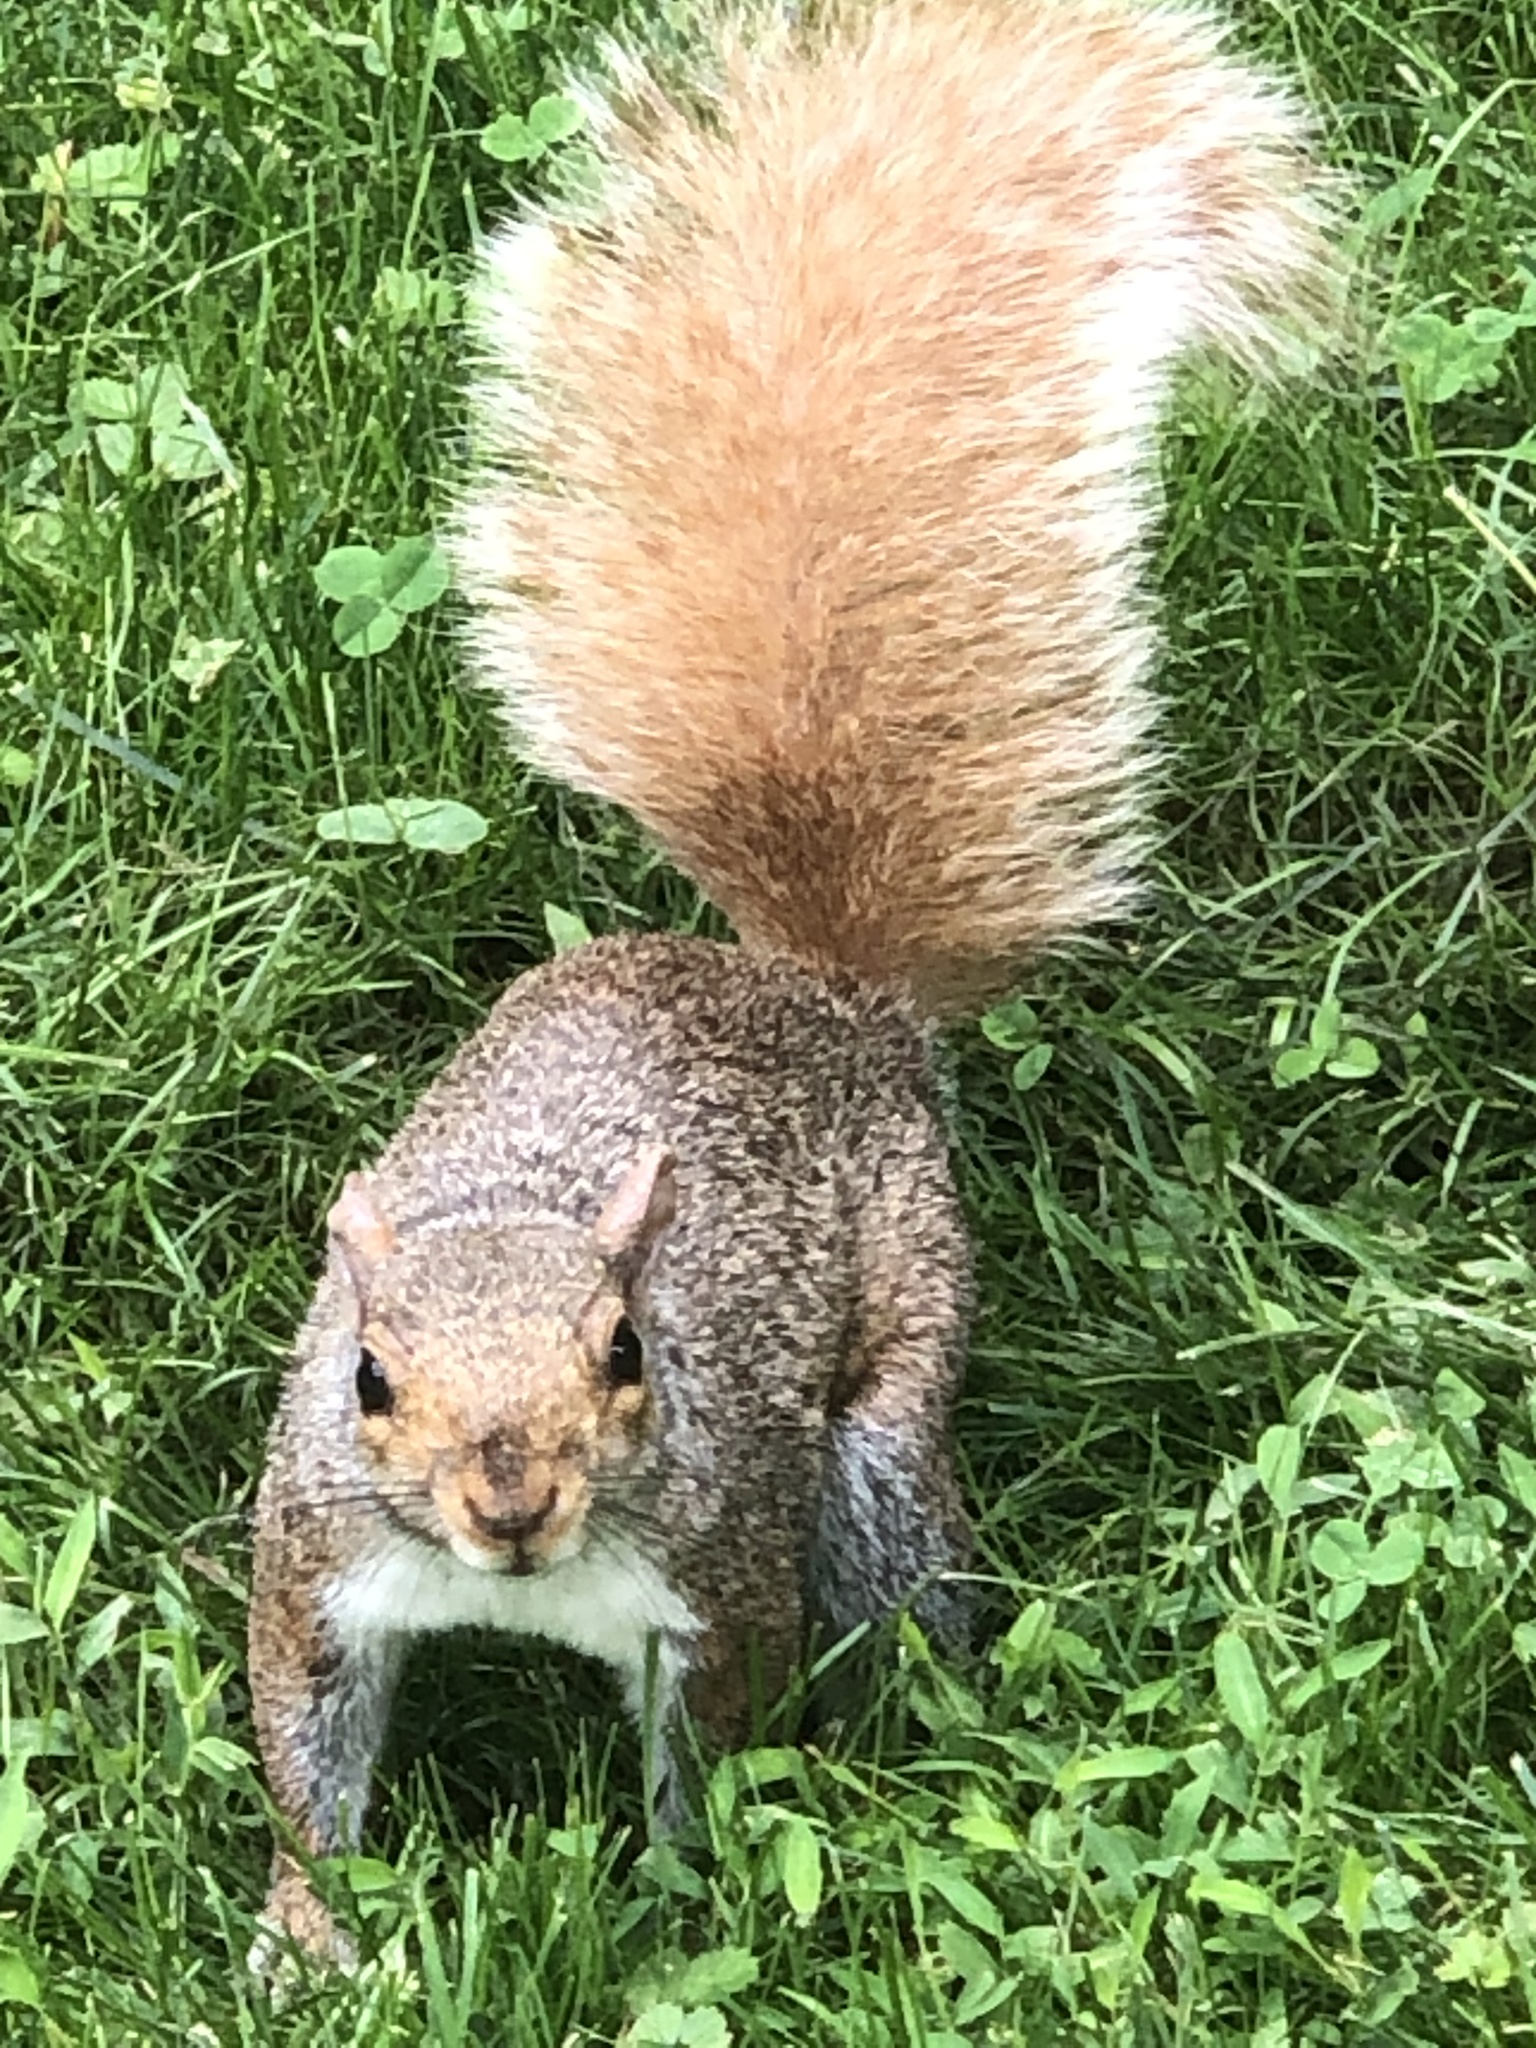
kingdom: Animalia
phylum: Chordata
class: Mammalia
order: Rodentia
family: Sciuridae
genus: Sciurus
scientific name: Sciurus carolinensis
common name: Eastern gray squirrel
